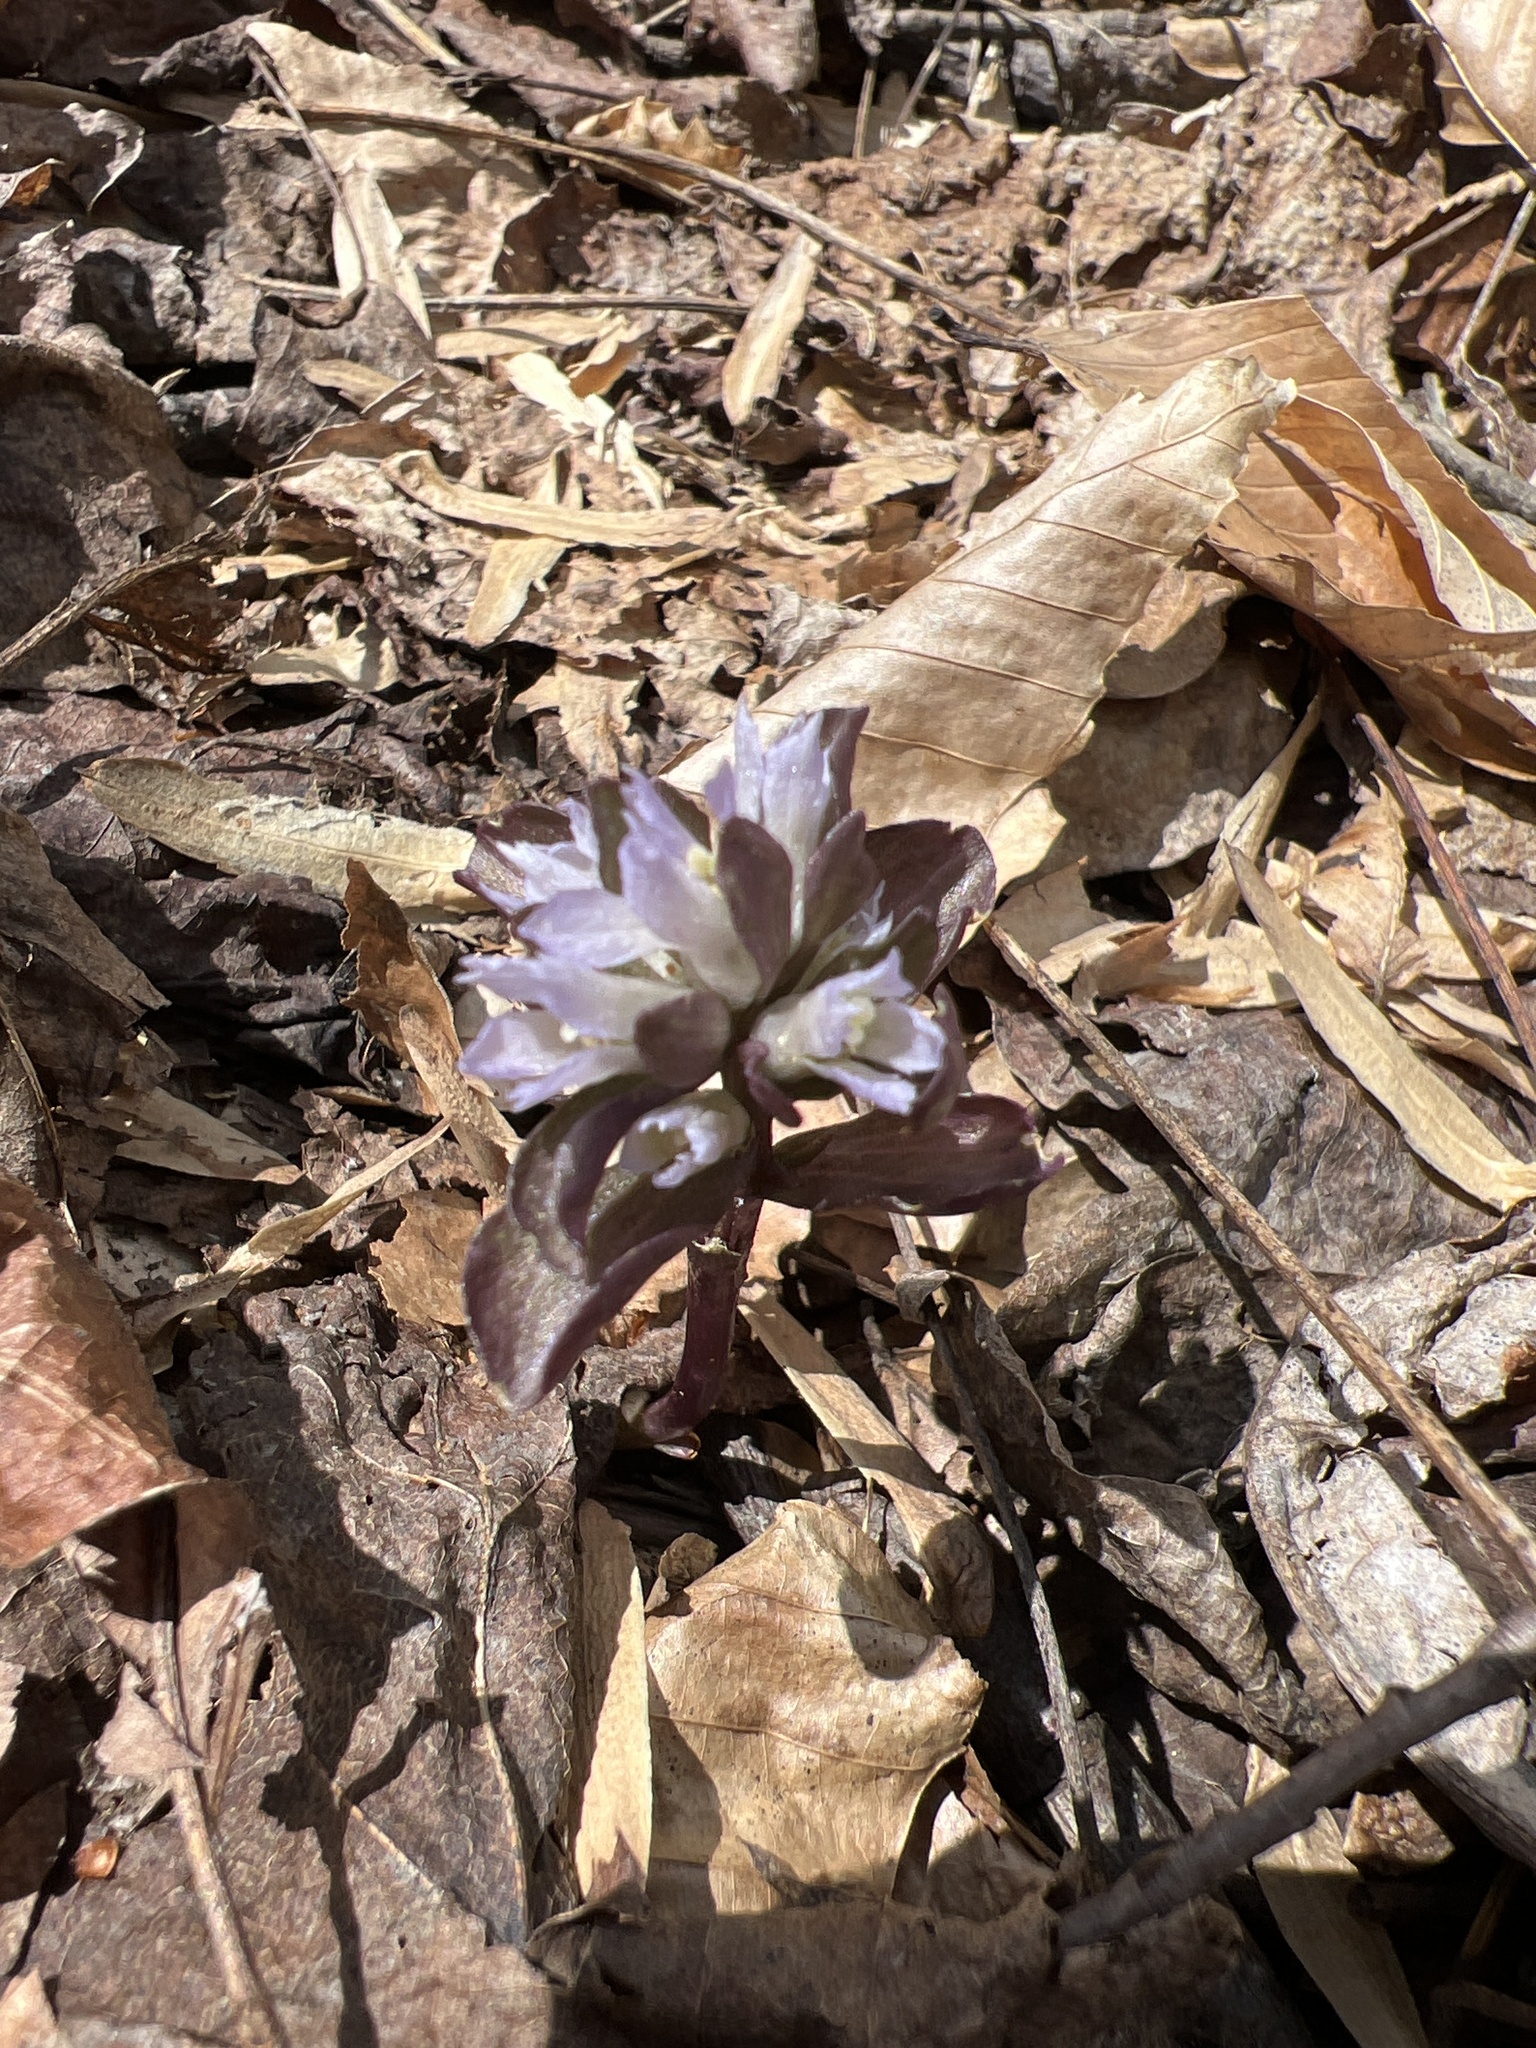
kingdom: Plantae
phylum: Tracheophyta
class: Magnoliopsida
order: Gentianales
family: Gentianaceae
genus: Obolaria
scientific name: Obolaria virginica
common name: Pennywort
